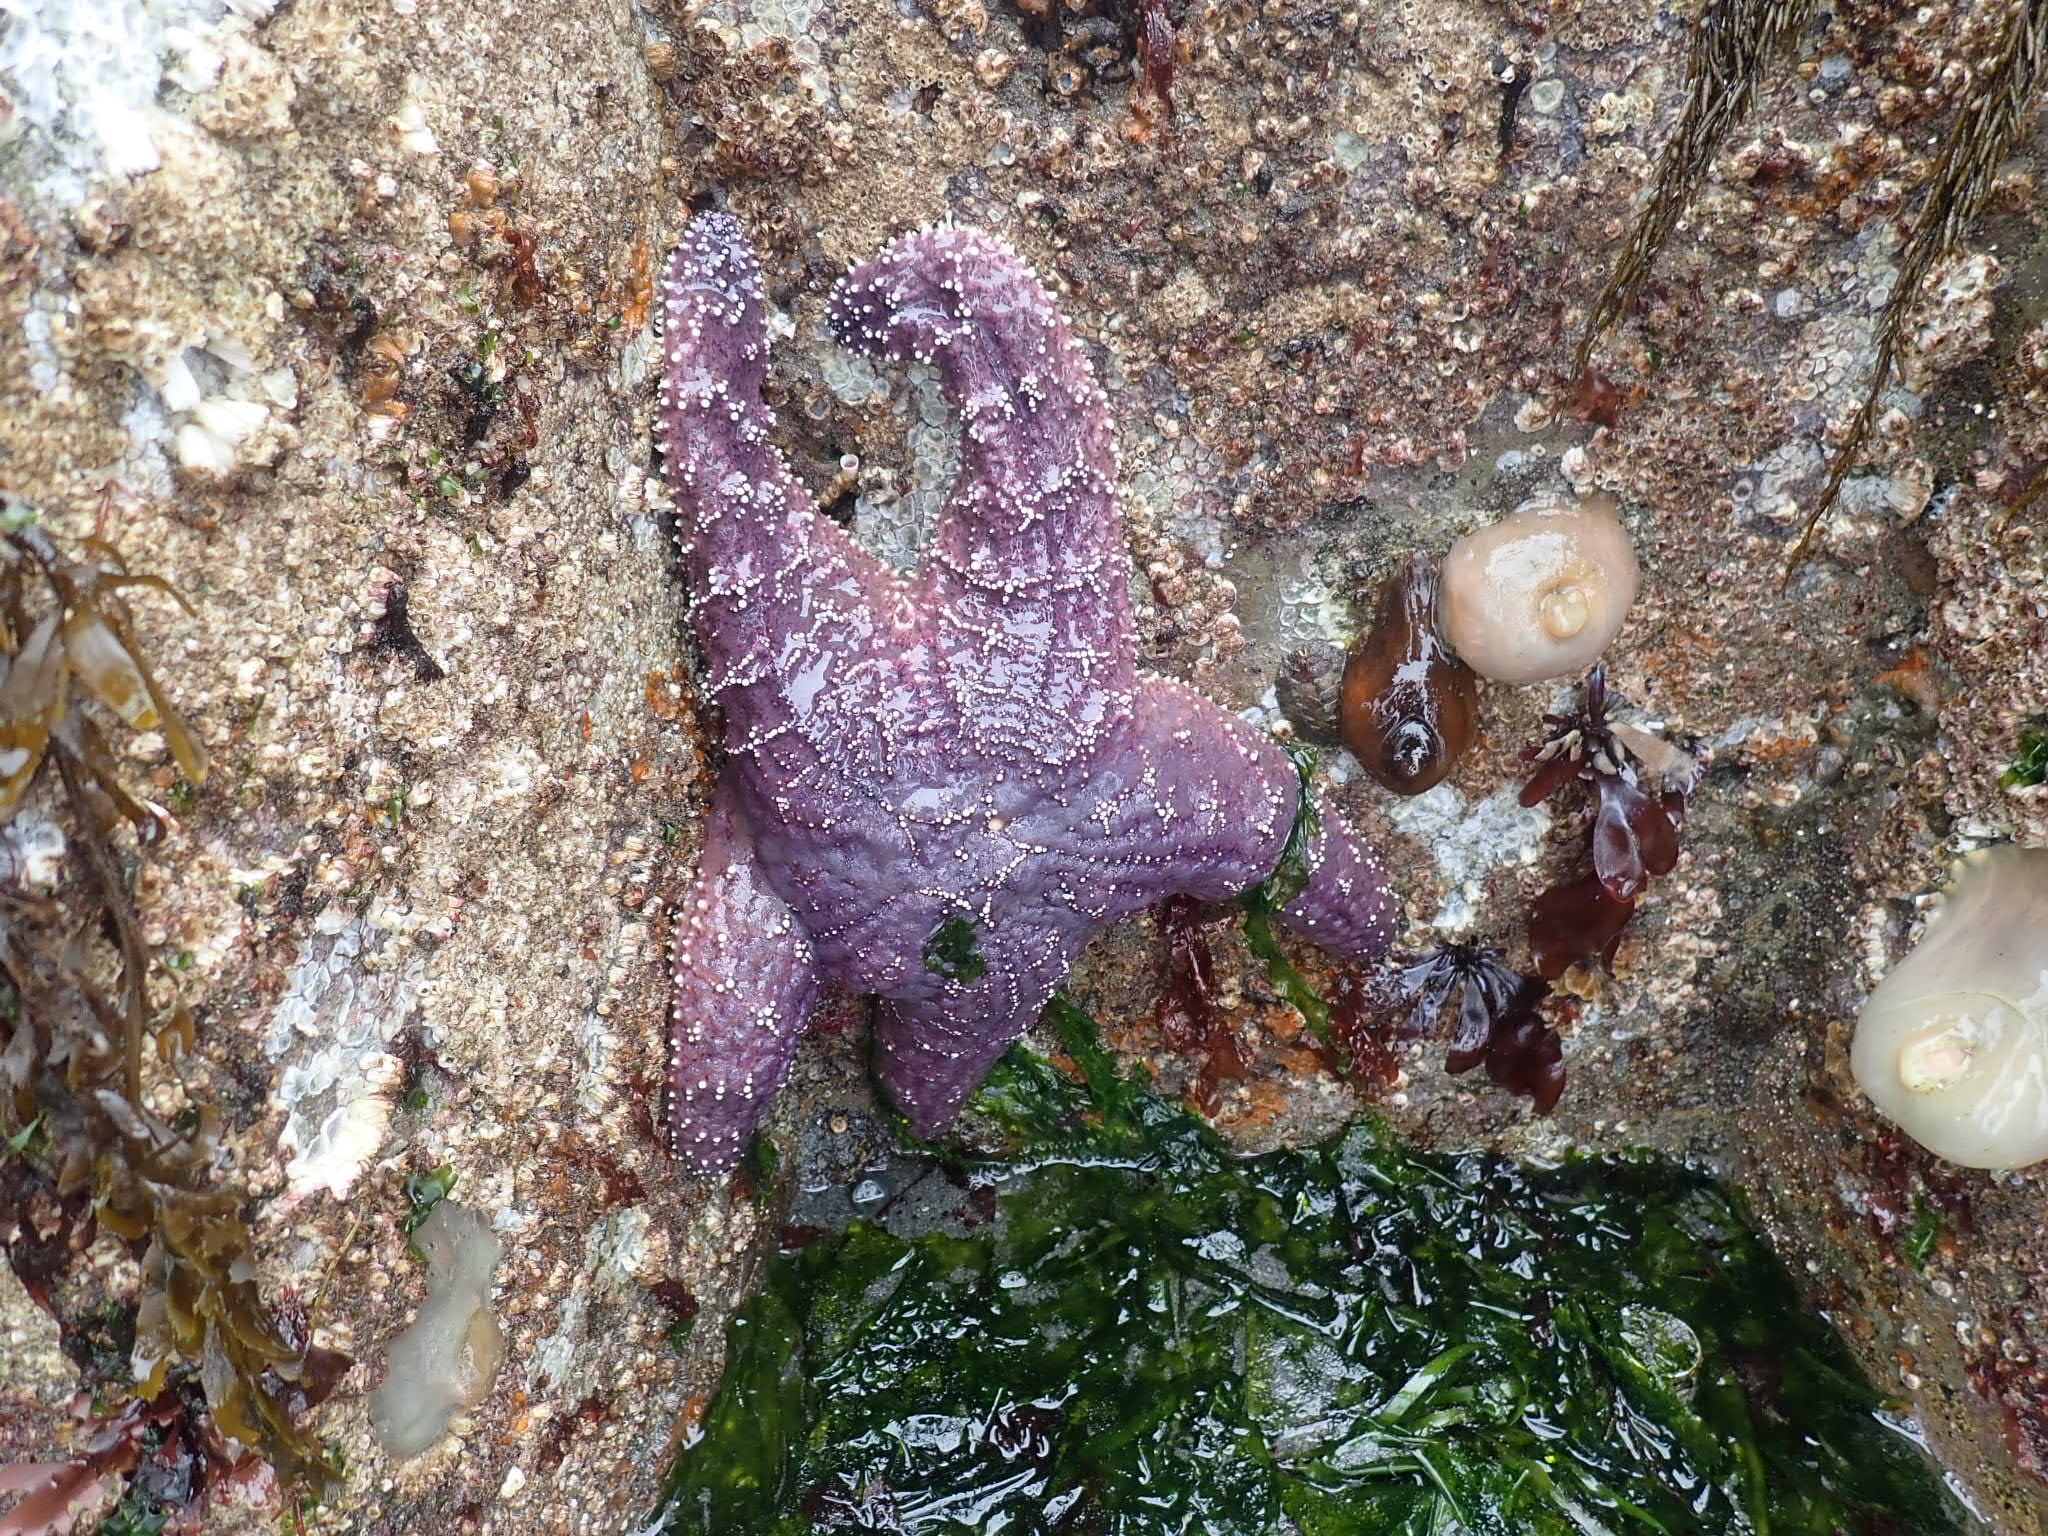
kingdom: Animalia
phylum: Echinodermata
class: Asteroidea
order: Forcipulatida
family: Asteriidae
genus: Pisaster
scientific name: Pisaster ochraceus
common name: Ochre stars
